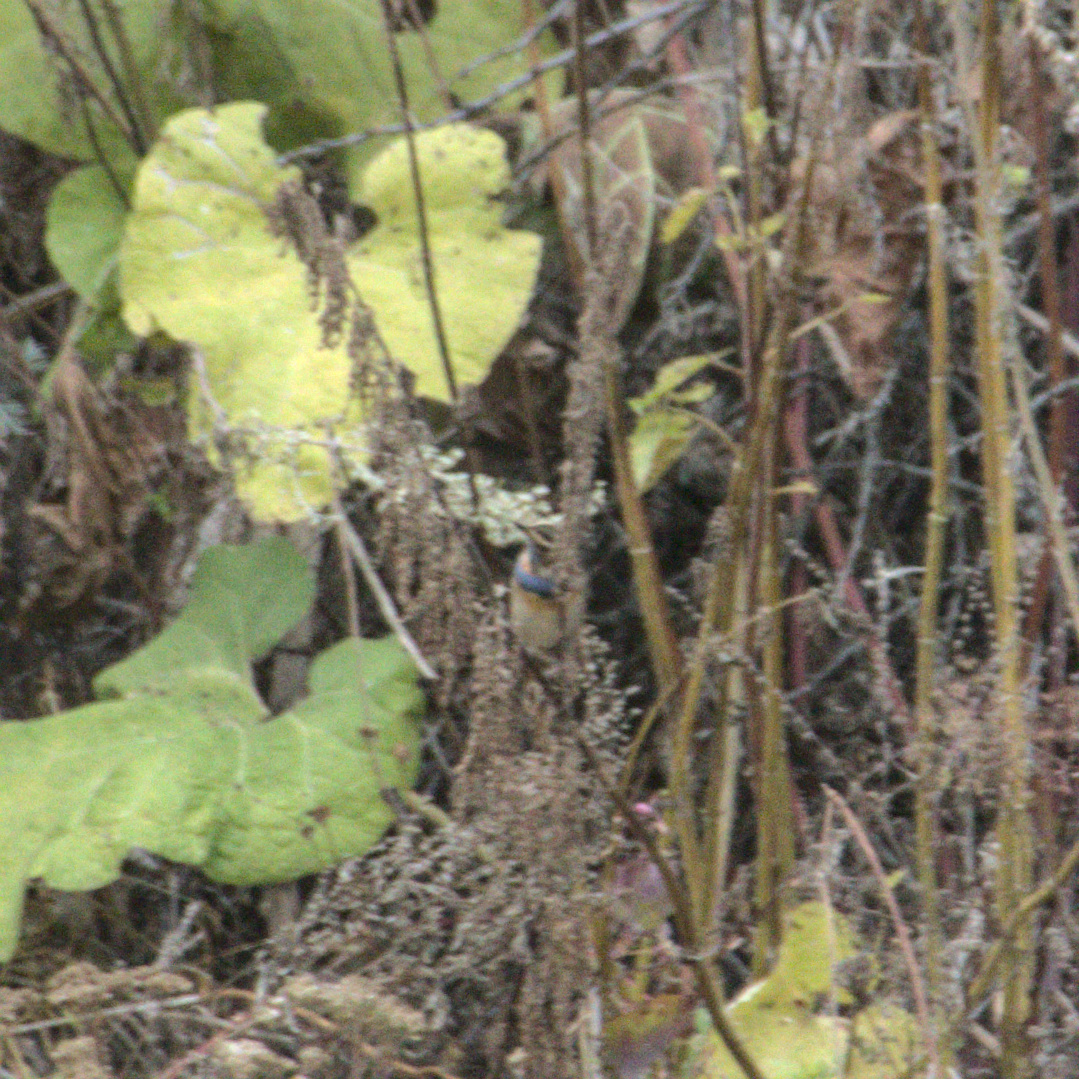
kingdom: Animalia
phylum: Chordata
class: Aves
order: Passeriformes
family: Muscicapidae
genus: Luscinia
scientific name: Luscinia svecica
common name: Bluethroat
